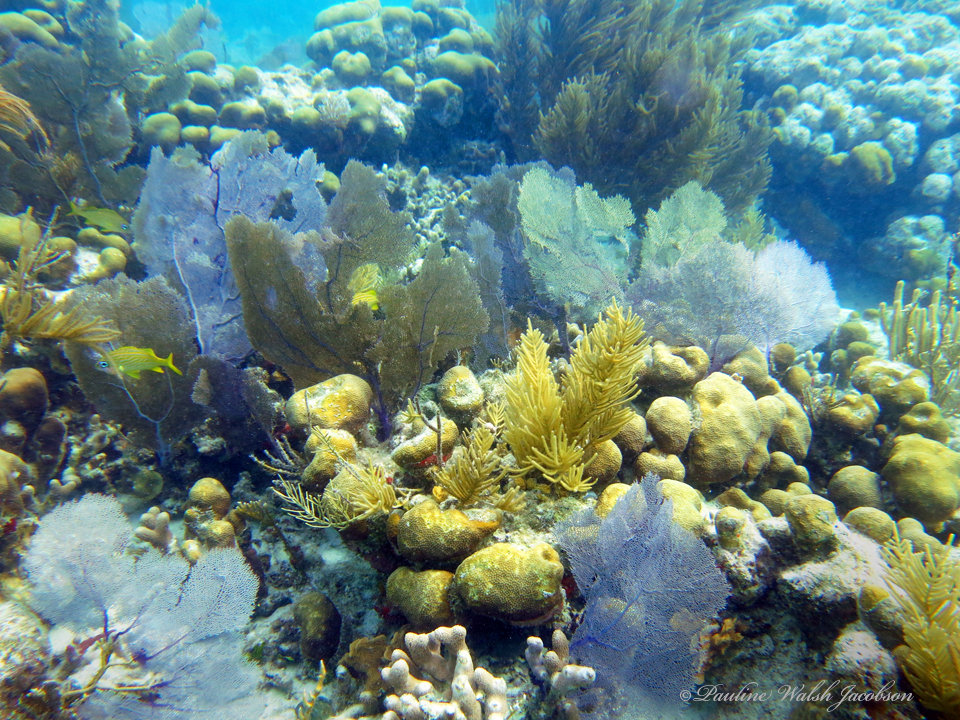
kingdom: Animalia
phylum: Cnidaria
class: Anthozoa
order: Malacalcyonacea
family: Gorgoniidae
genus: Gorgonia
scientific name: Gorgonia ventalina
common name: Common sea fan
